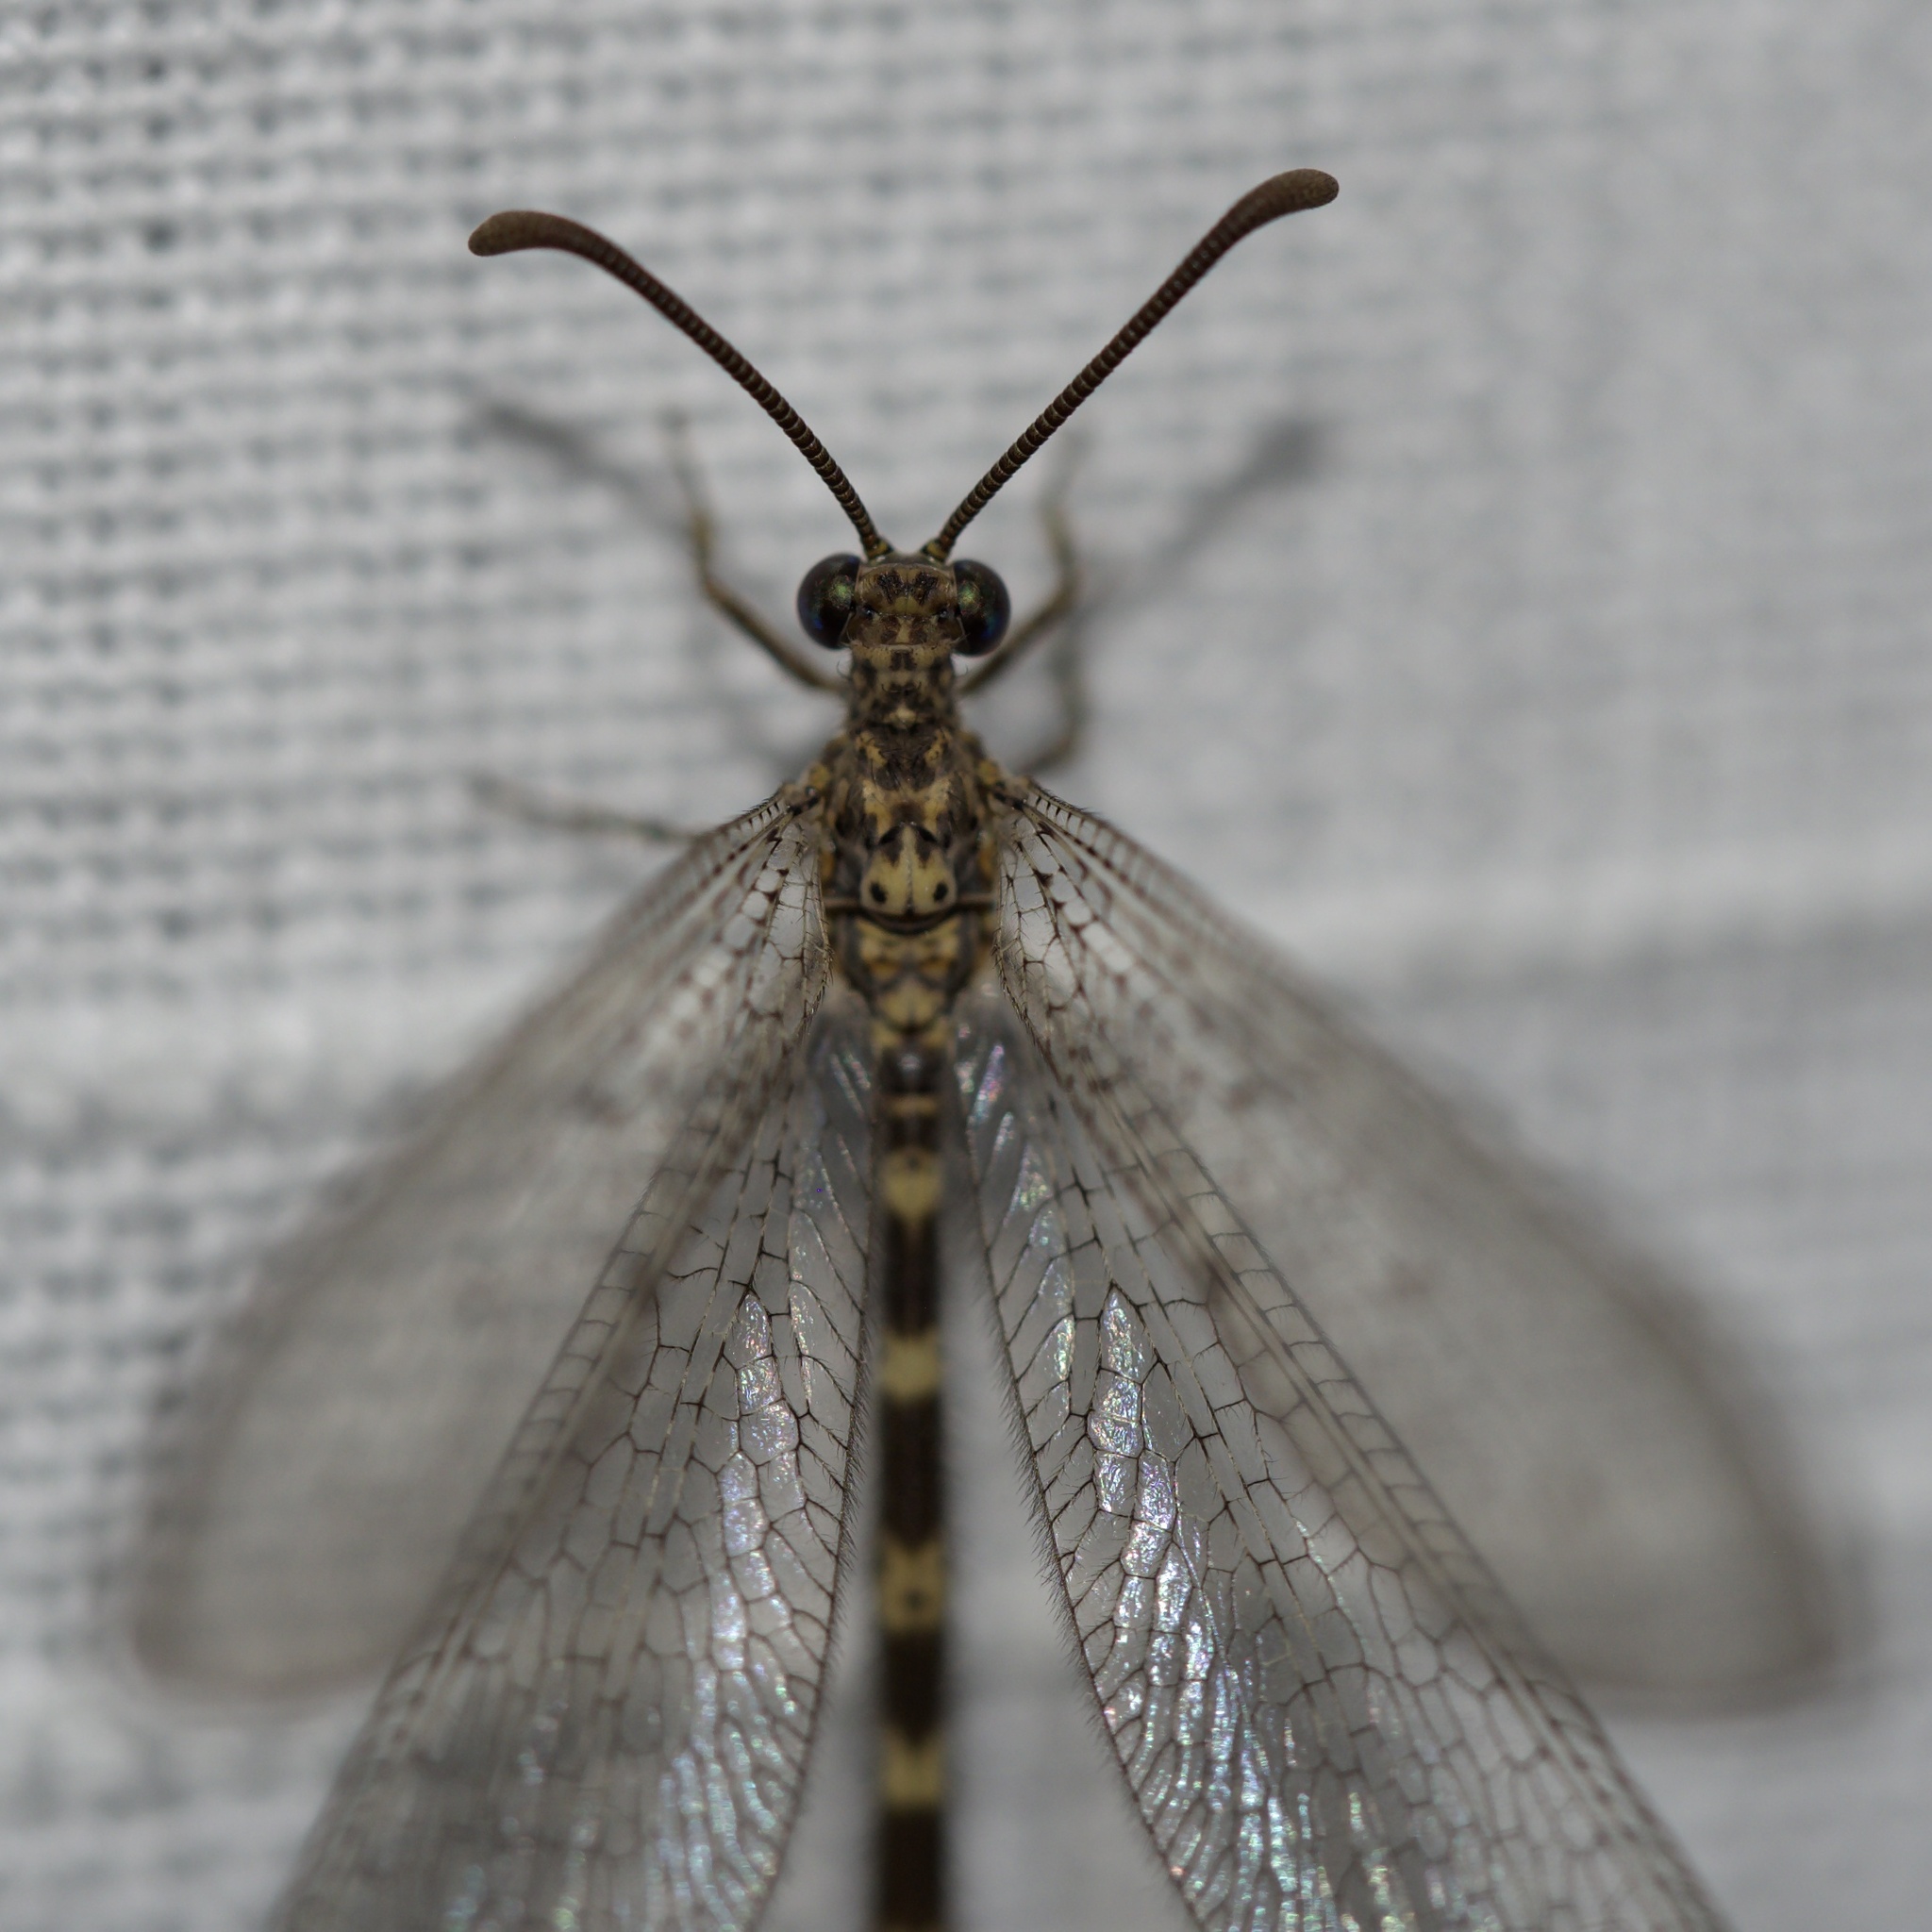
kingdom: Animalia
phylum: Arthropoda
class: Insecta
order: Neuroptera
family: Myrmeleontidae
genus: Brachynemurus
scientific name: Brachynemurus sackeni
